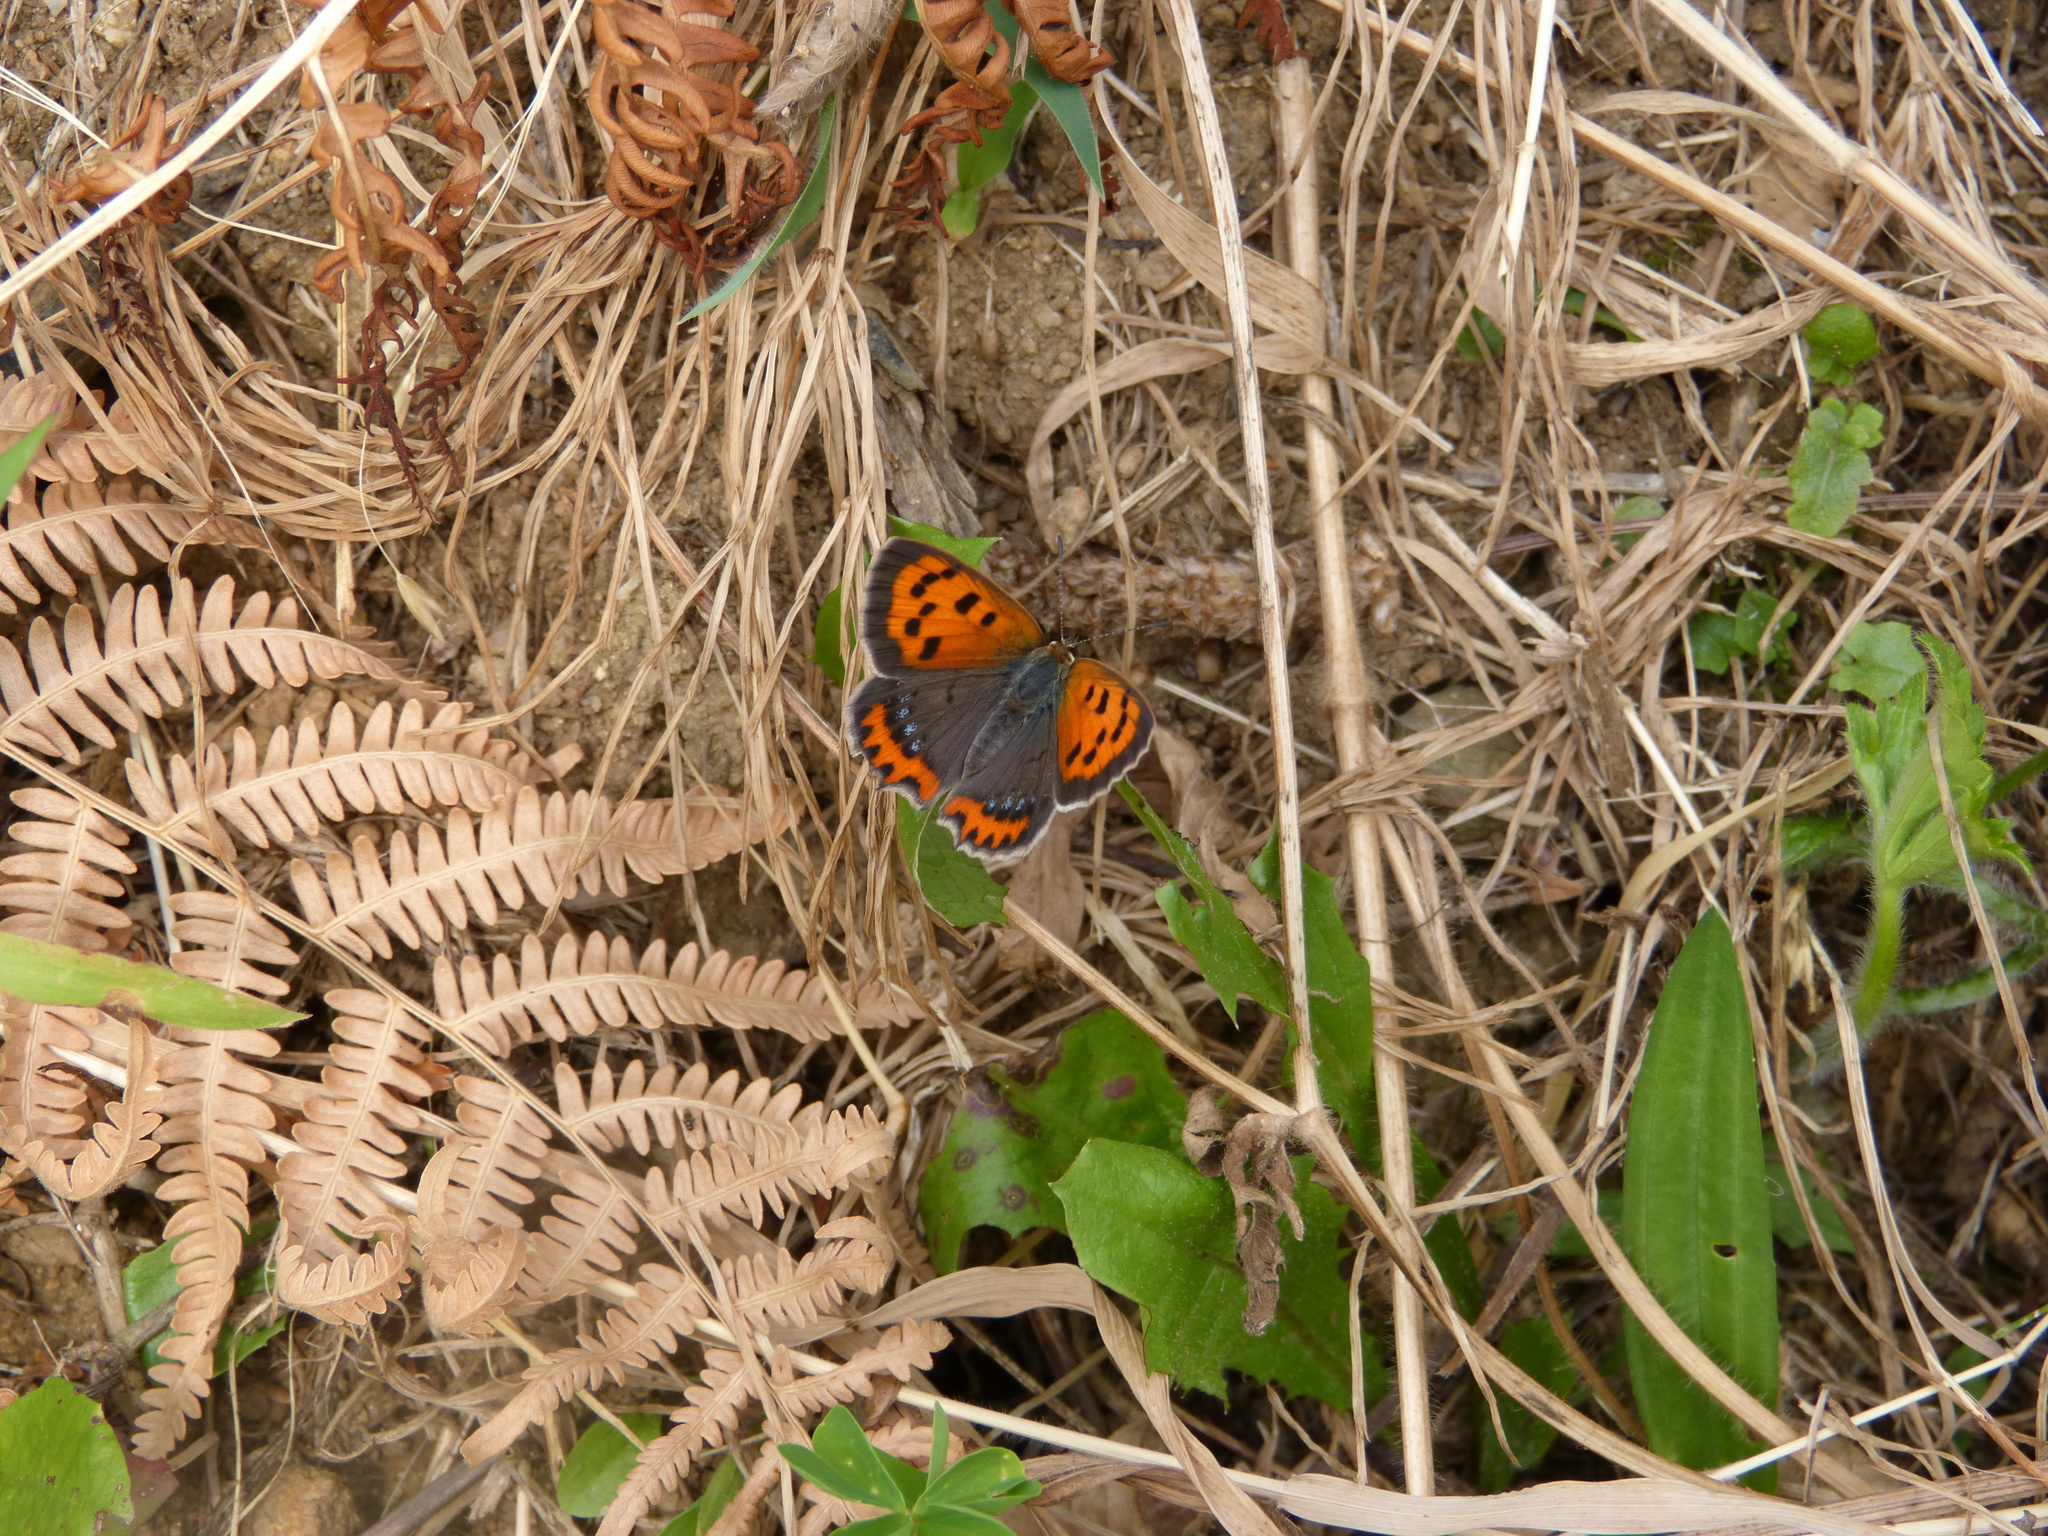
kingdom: Animalia
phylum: Arthropoda
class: Insecta
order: Lepidoptera
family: Lycaenidae
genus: Lycaena
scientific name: Lycaena phlaeas
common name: Small copper
